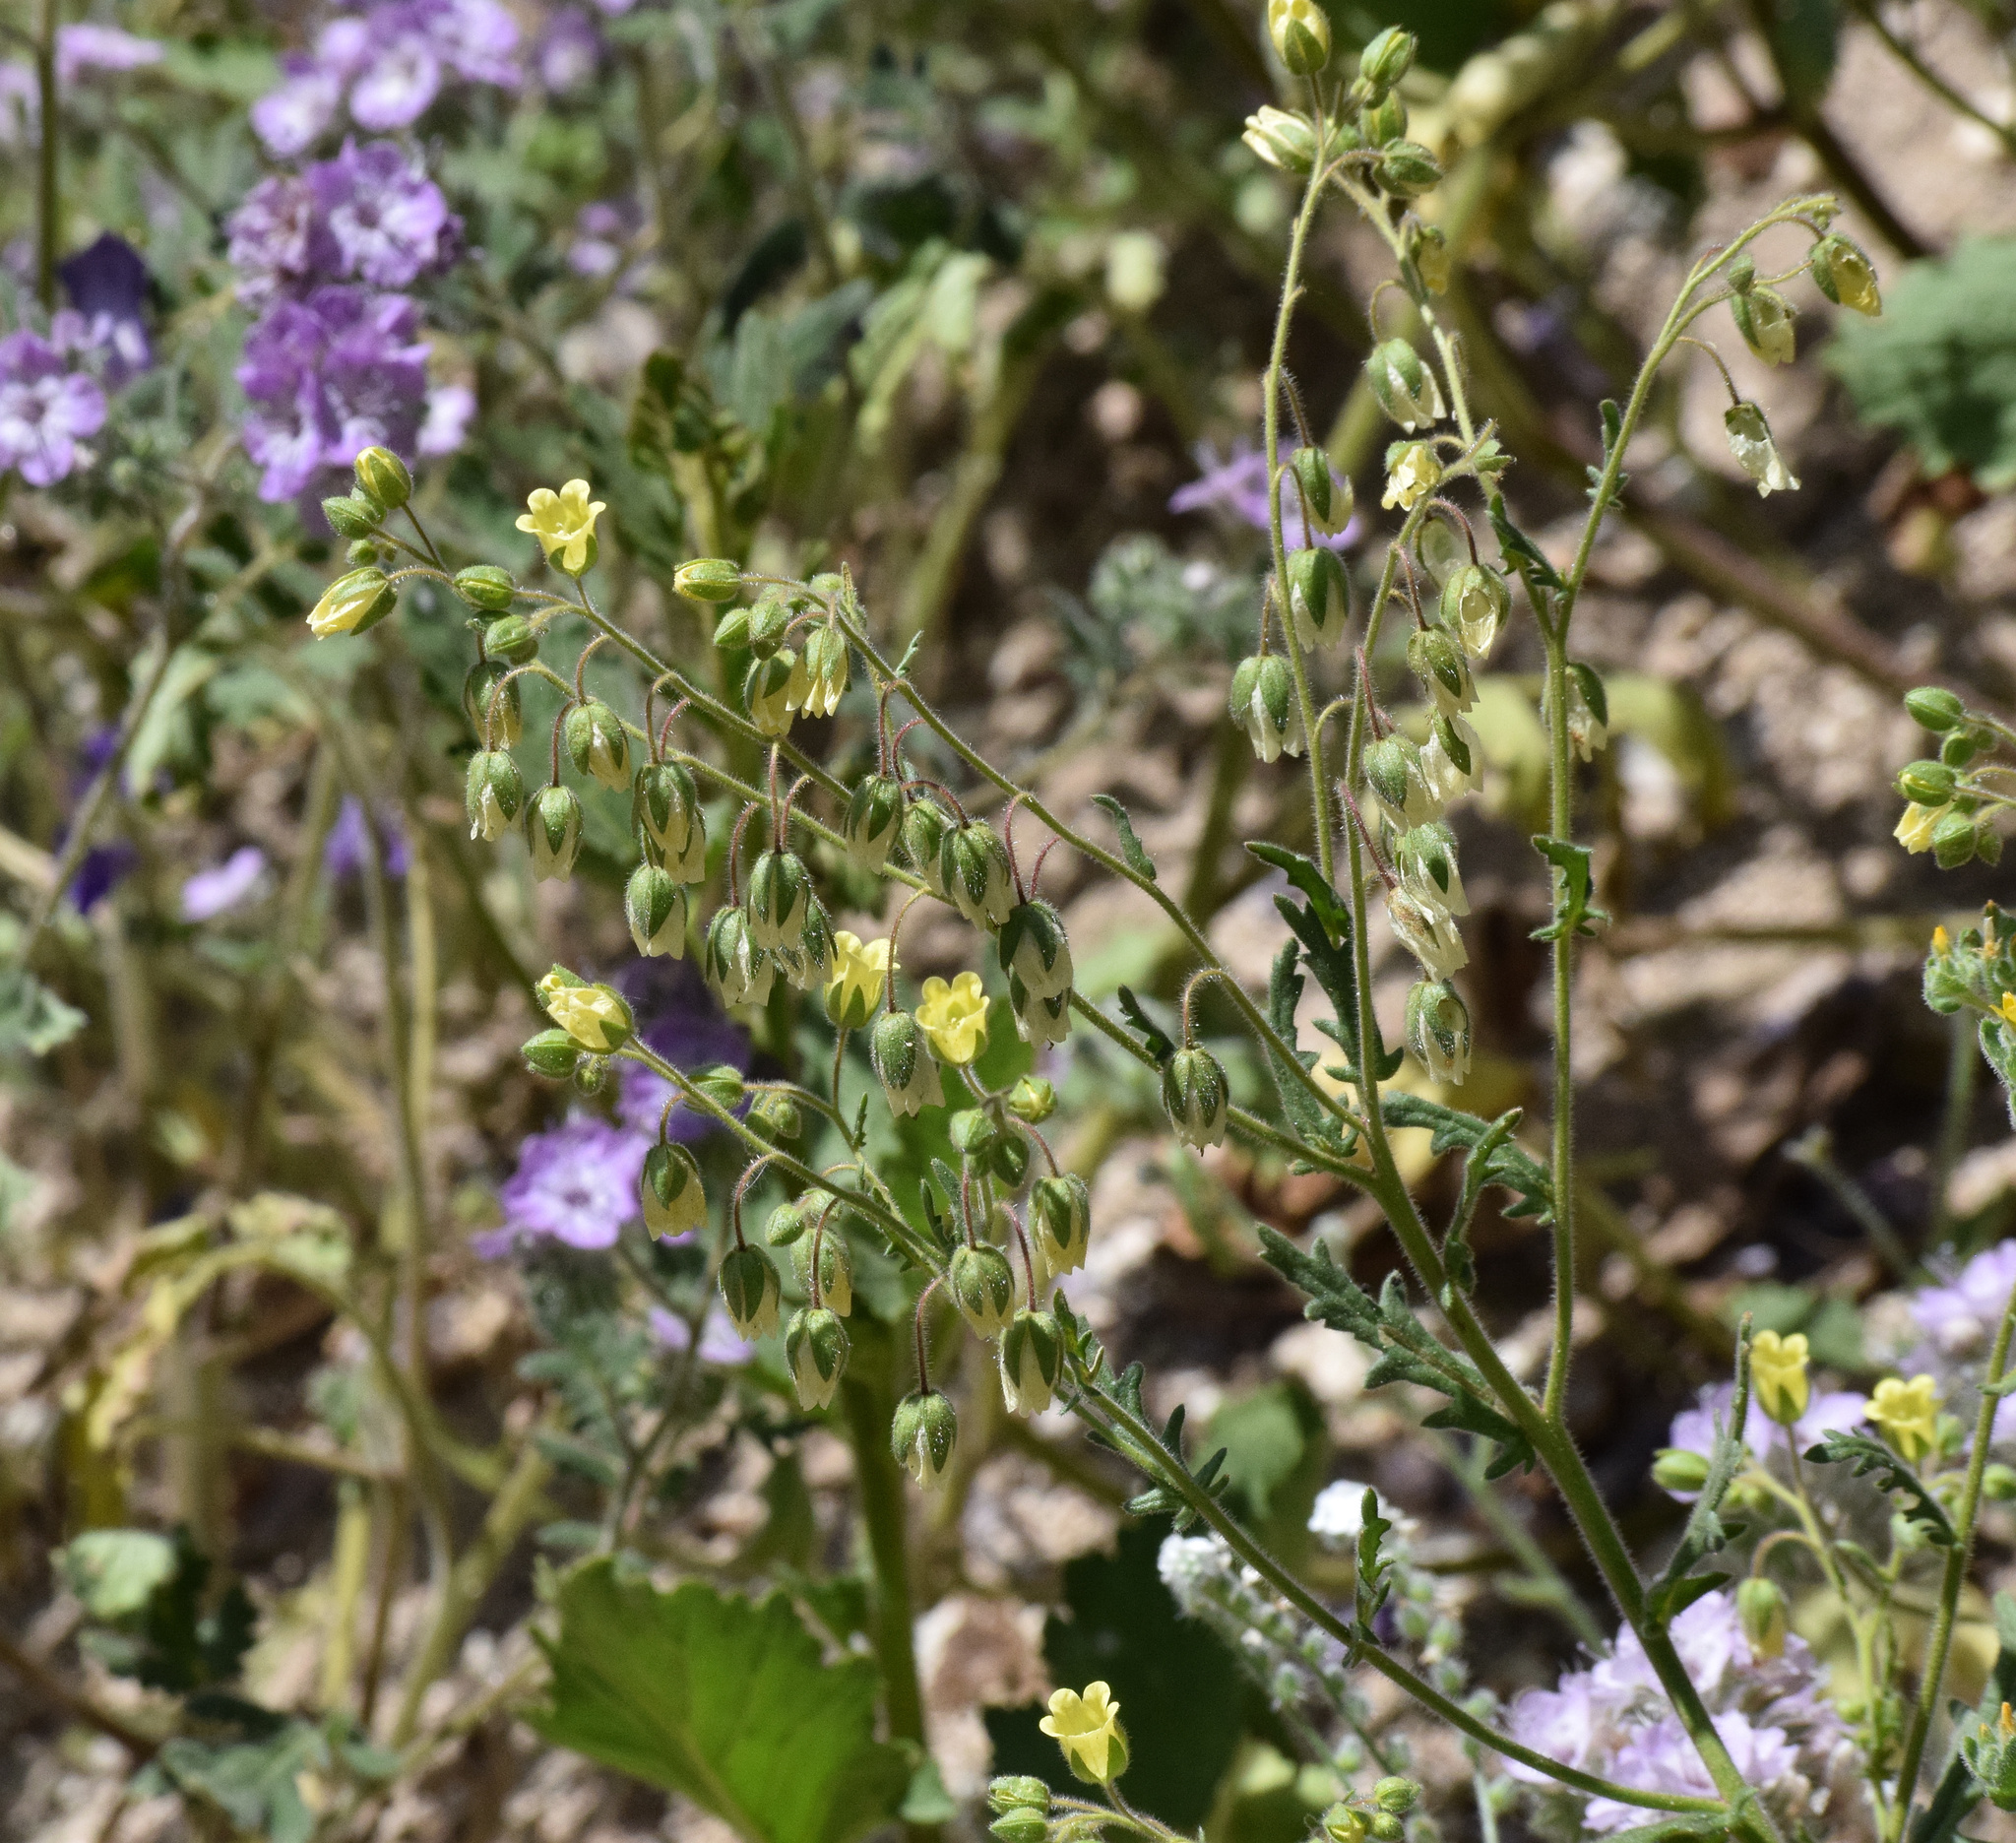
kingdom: Plantae
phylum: Tracheophyta
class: Magnoliopsida
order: Boraginales
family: Hydrophyllaceae
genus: Emmenanthe
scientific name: Emmenanthe penduliflora
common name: Whispering-bells
